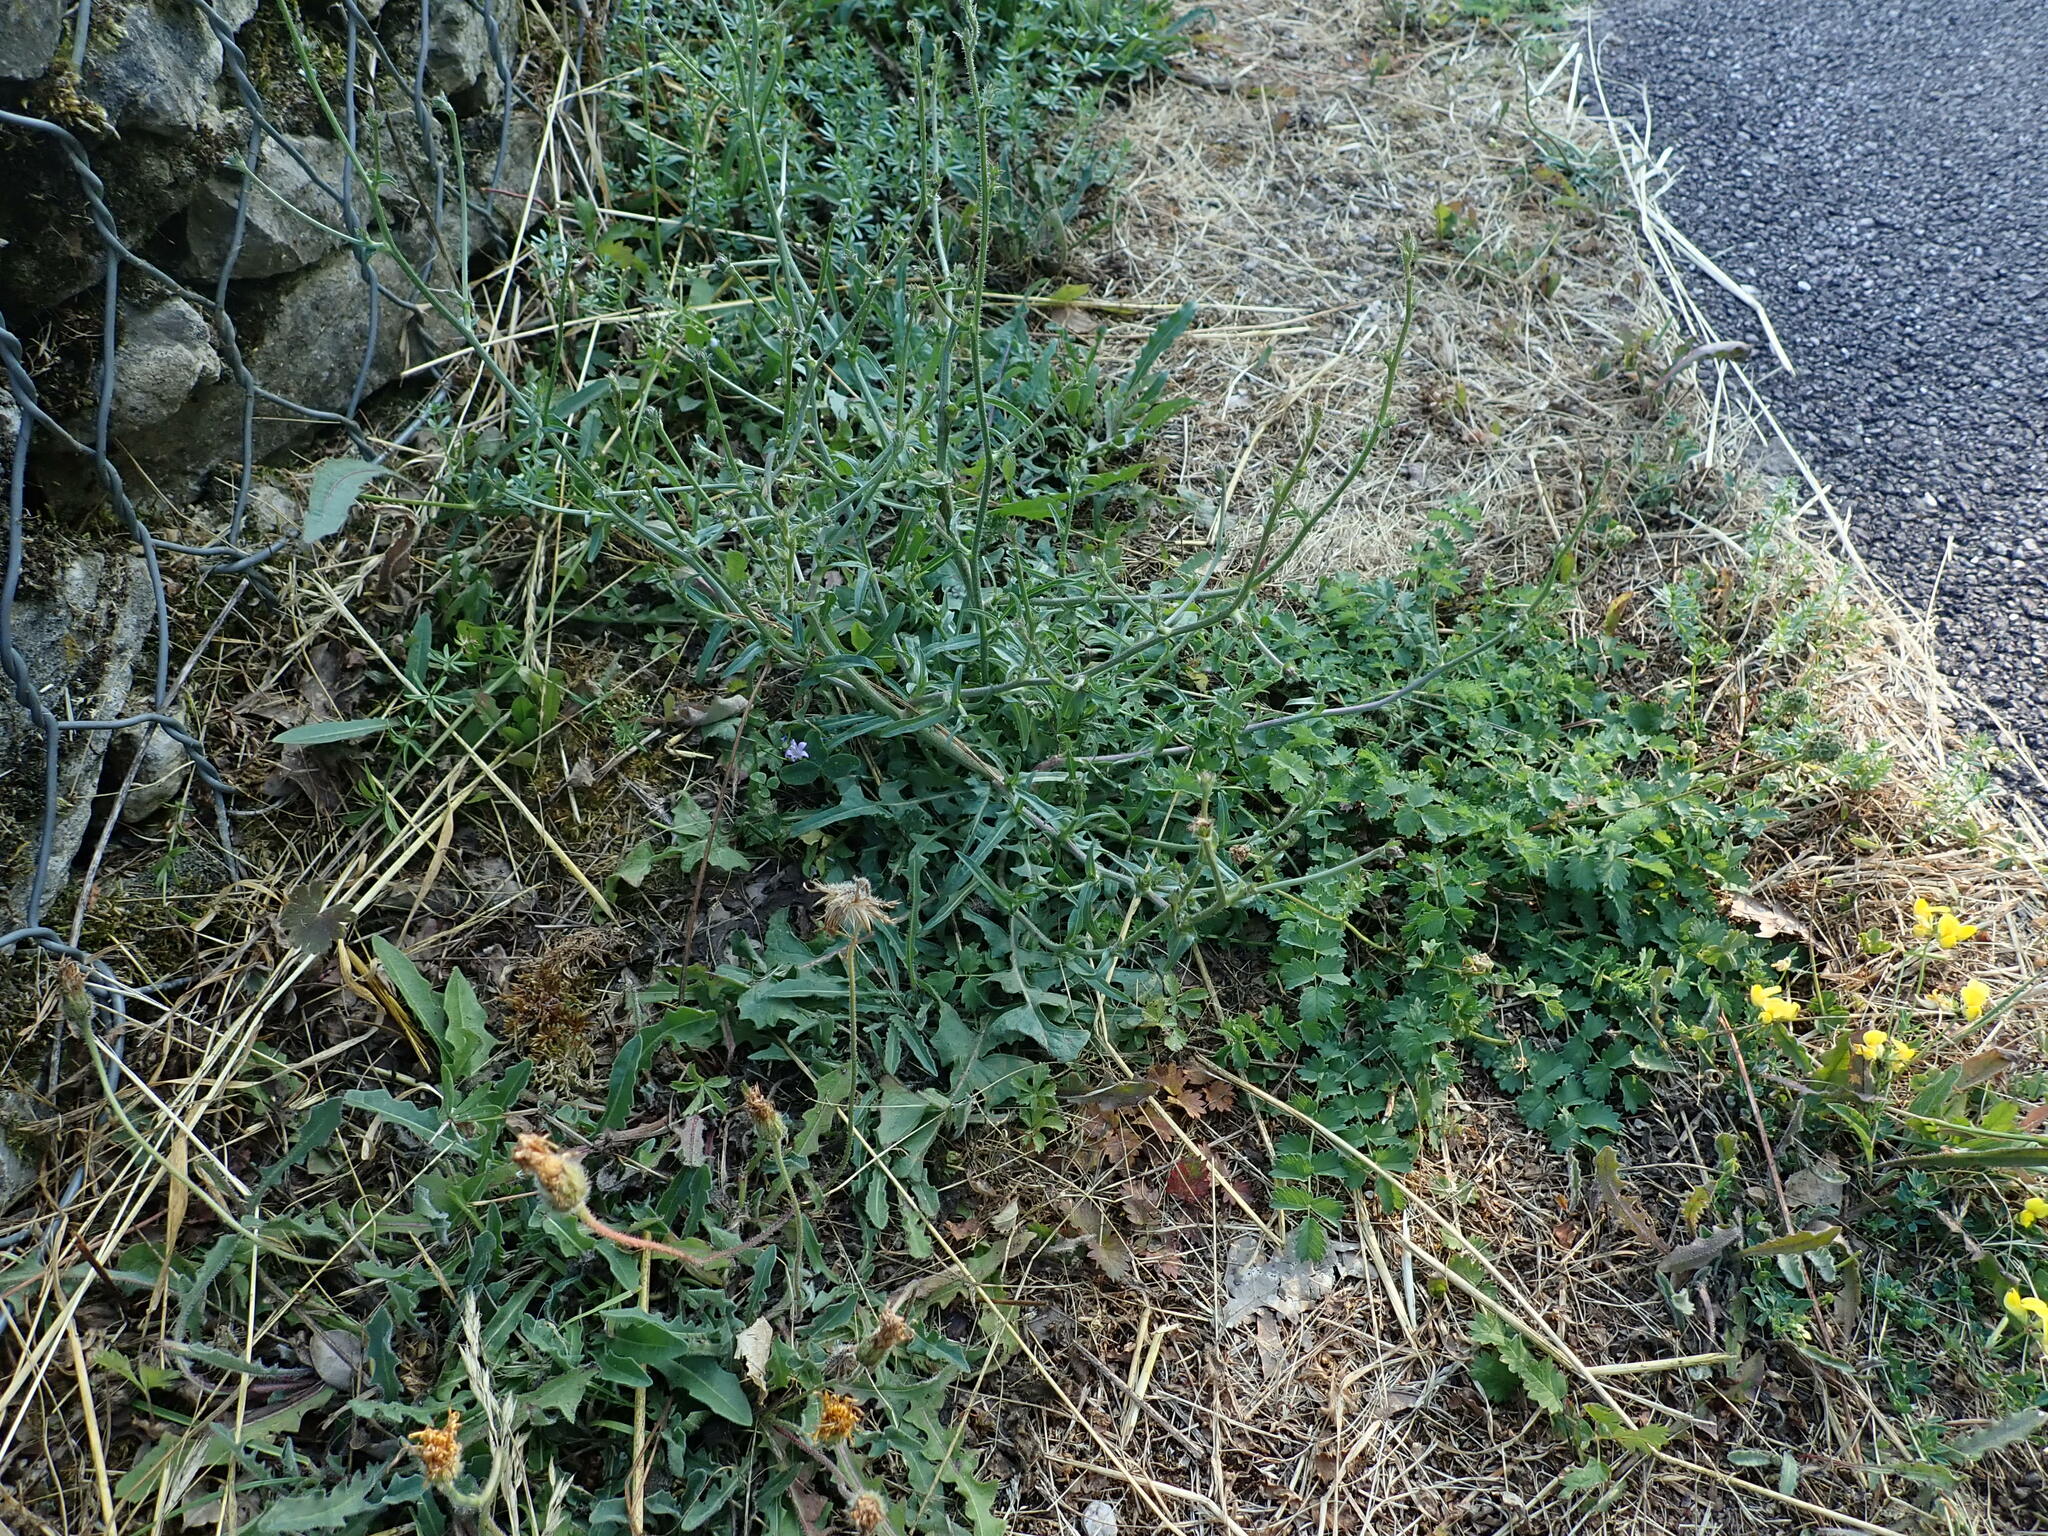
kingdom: Plantae
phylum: Tracheophyta
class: Magnoliopsida
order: Asterales
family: Asteraceae
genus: Cichorium
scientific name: Cichorium intybus
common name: Chicory
